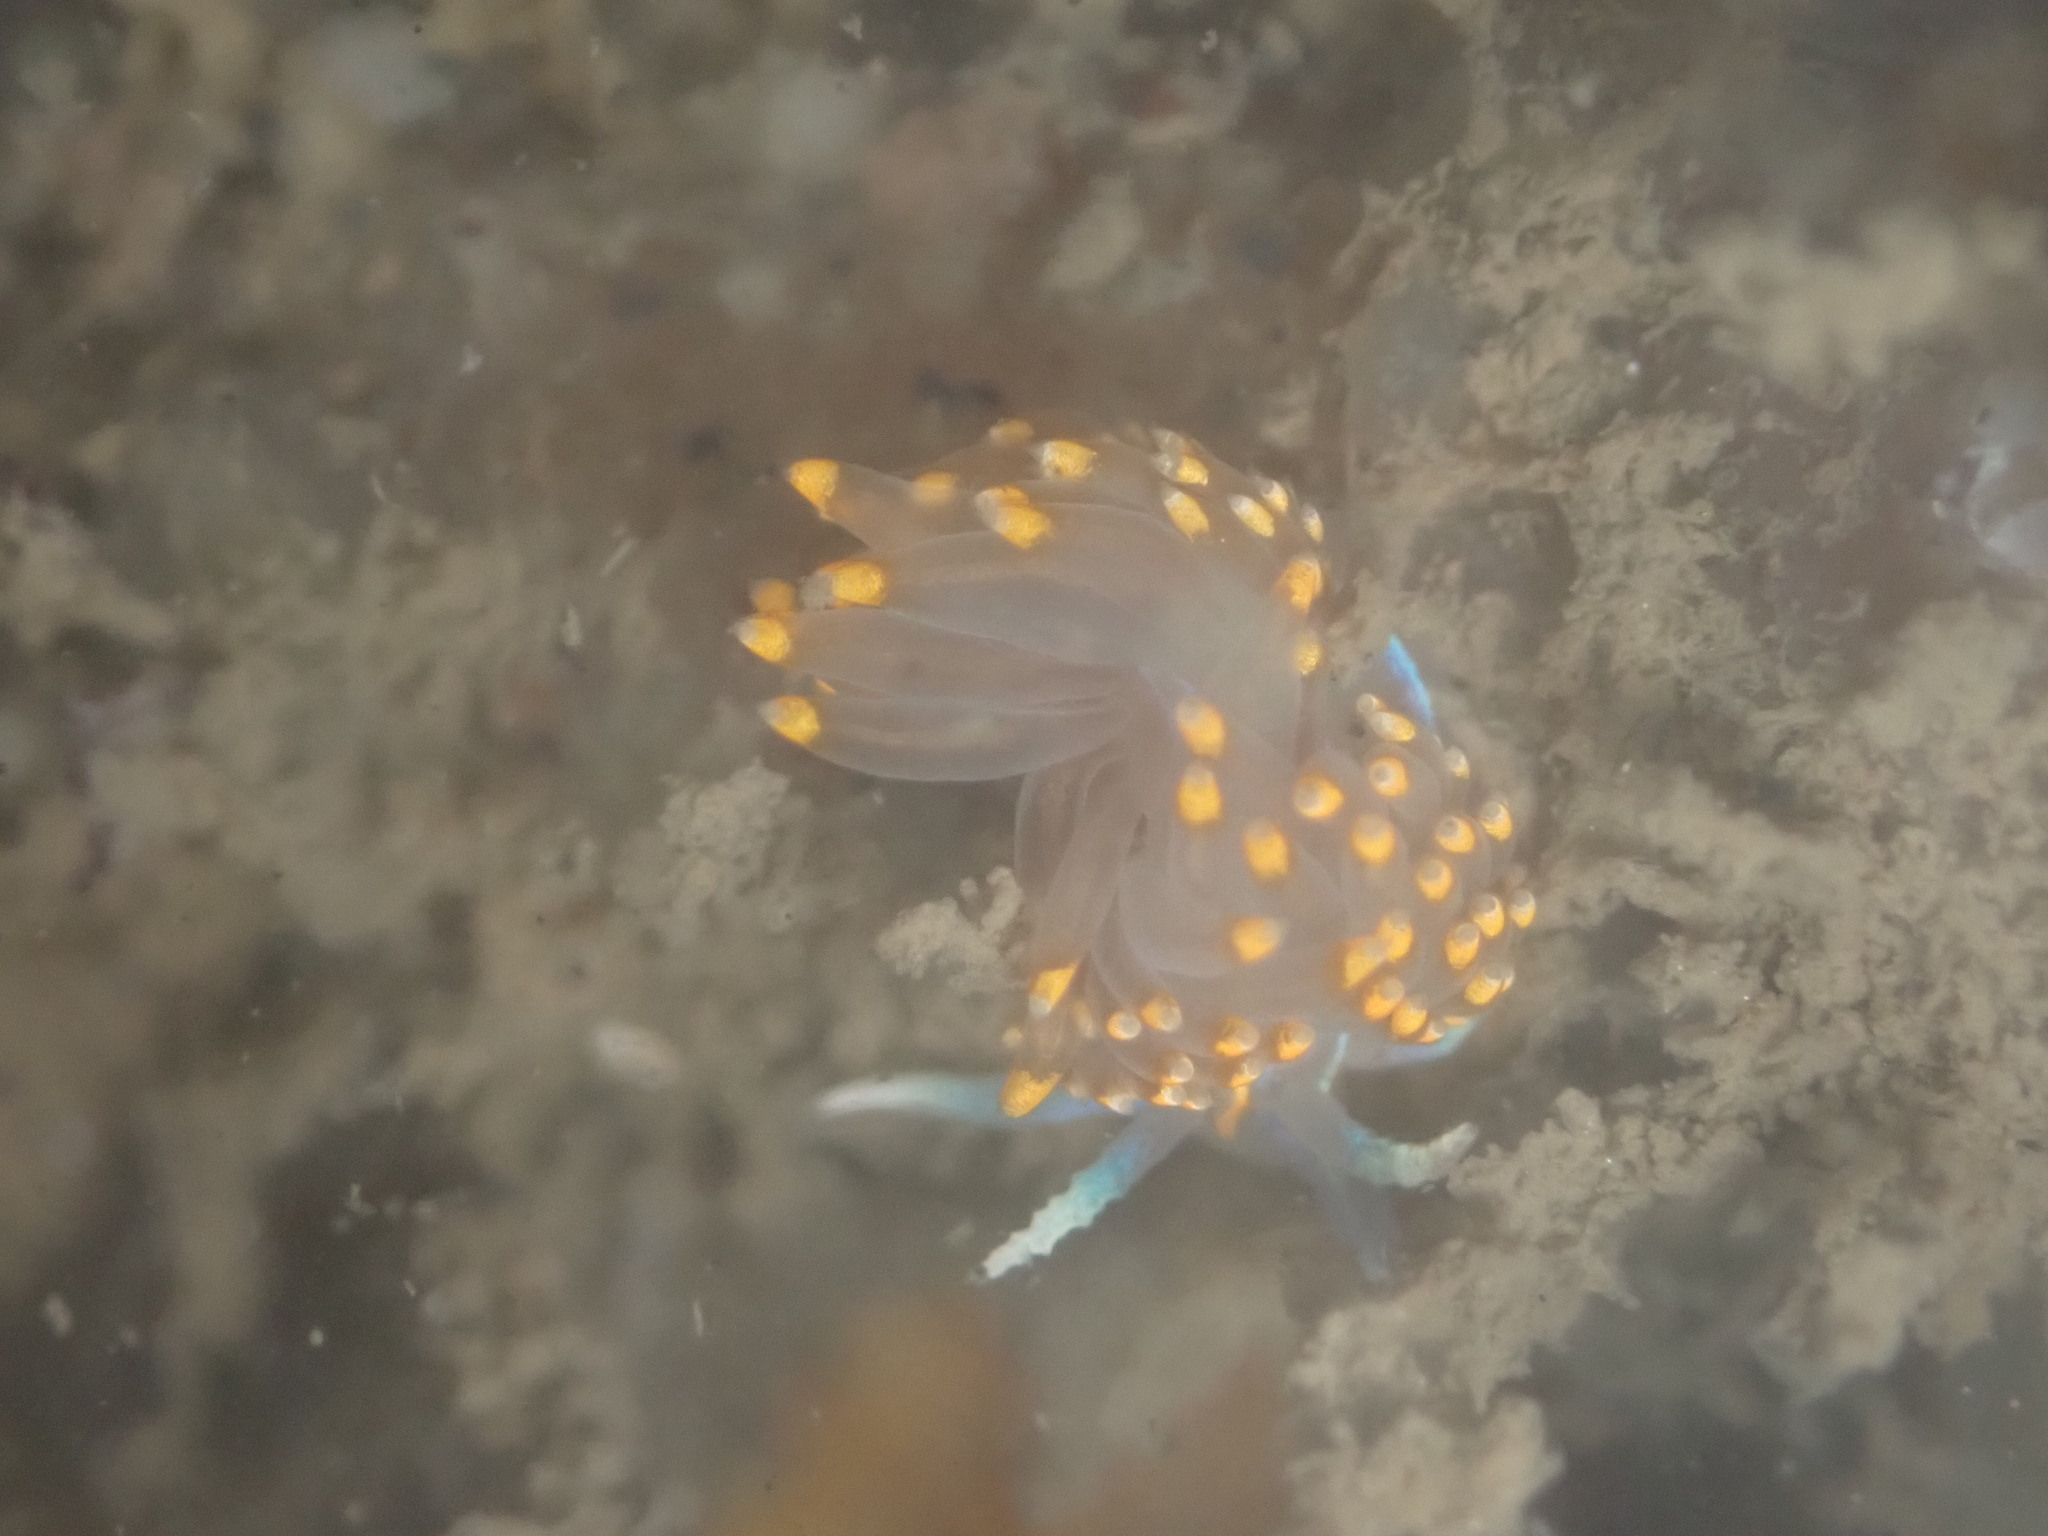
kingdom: Animalia
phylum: Mollusca
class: Gastropoda
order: Nudibranchia
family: Myrrhinidae
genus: Hermissenda
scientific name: Hermissenda opalescens
